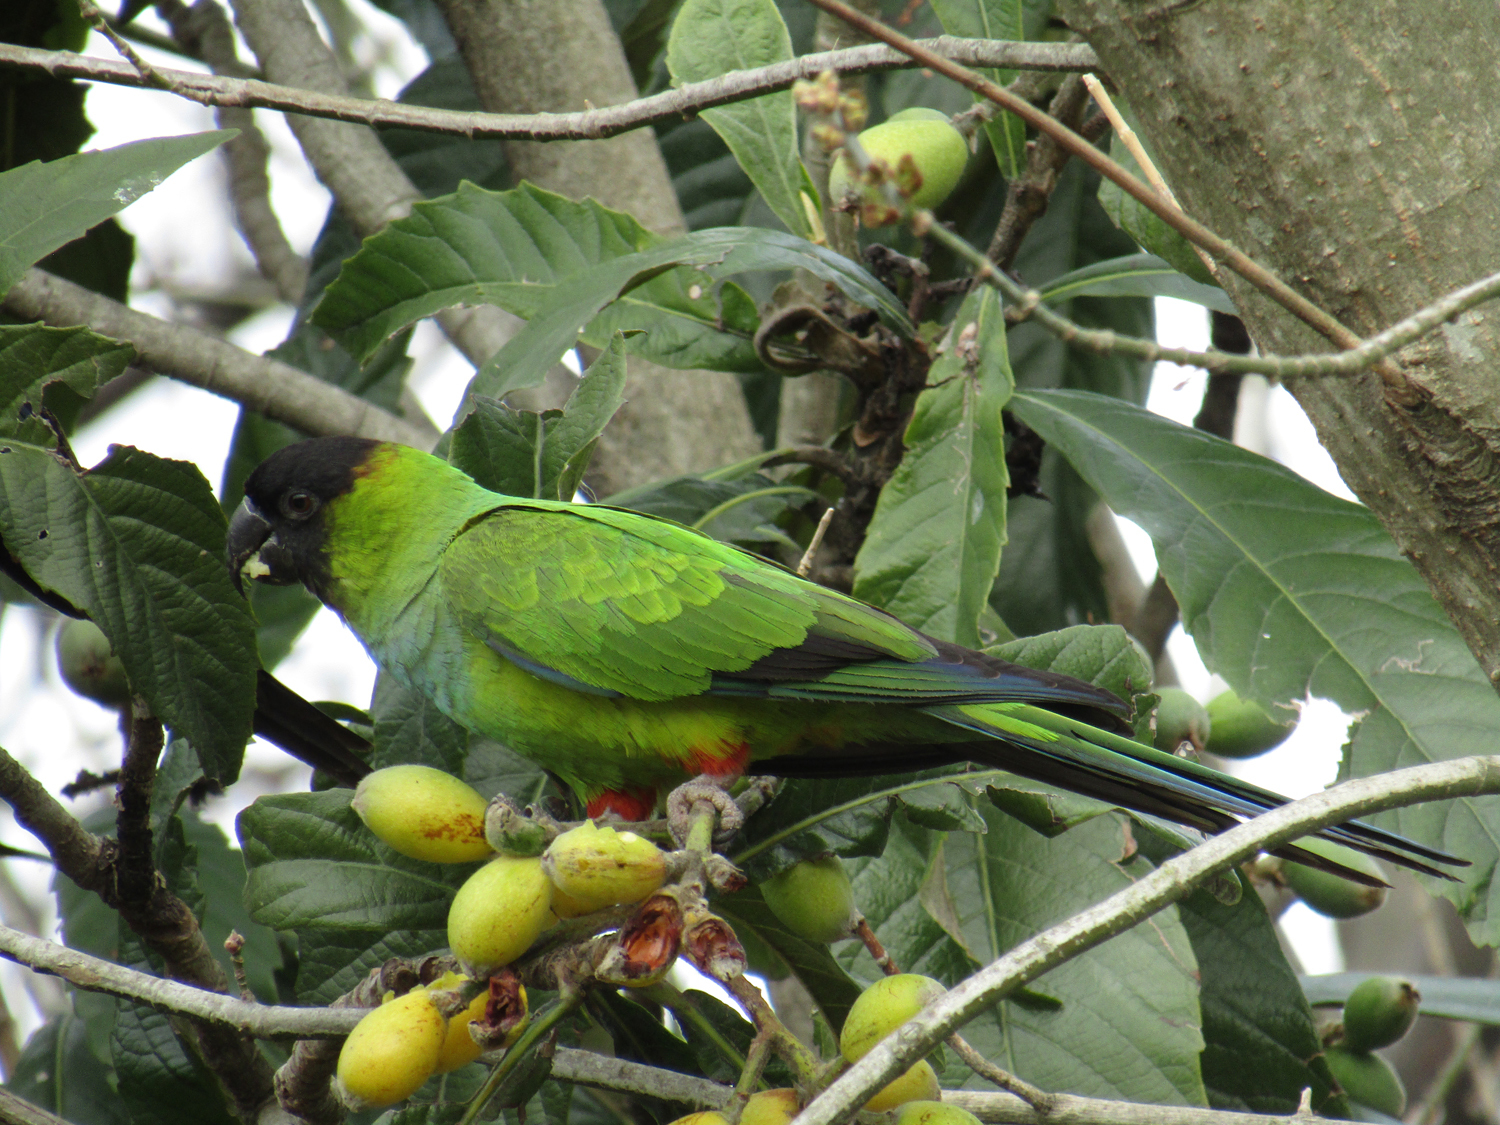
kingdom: Animalia
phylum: Chordata
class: Aves
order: Psittaciformes
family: Psittacidae
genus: Nandayus
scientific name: Nandayus nenday
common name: Nanday parakeet
